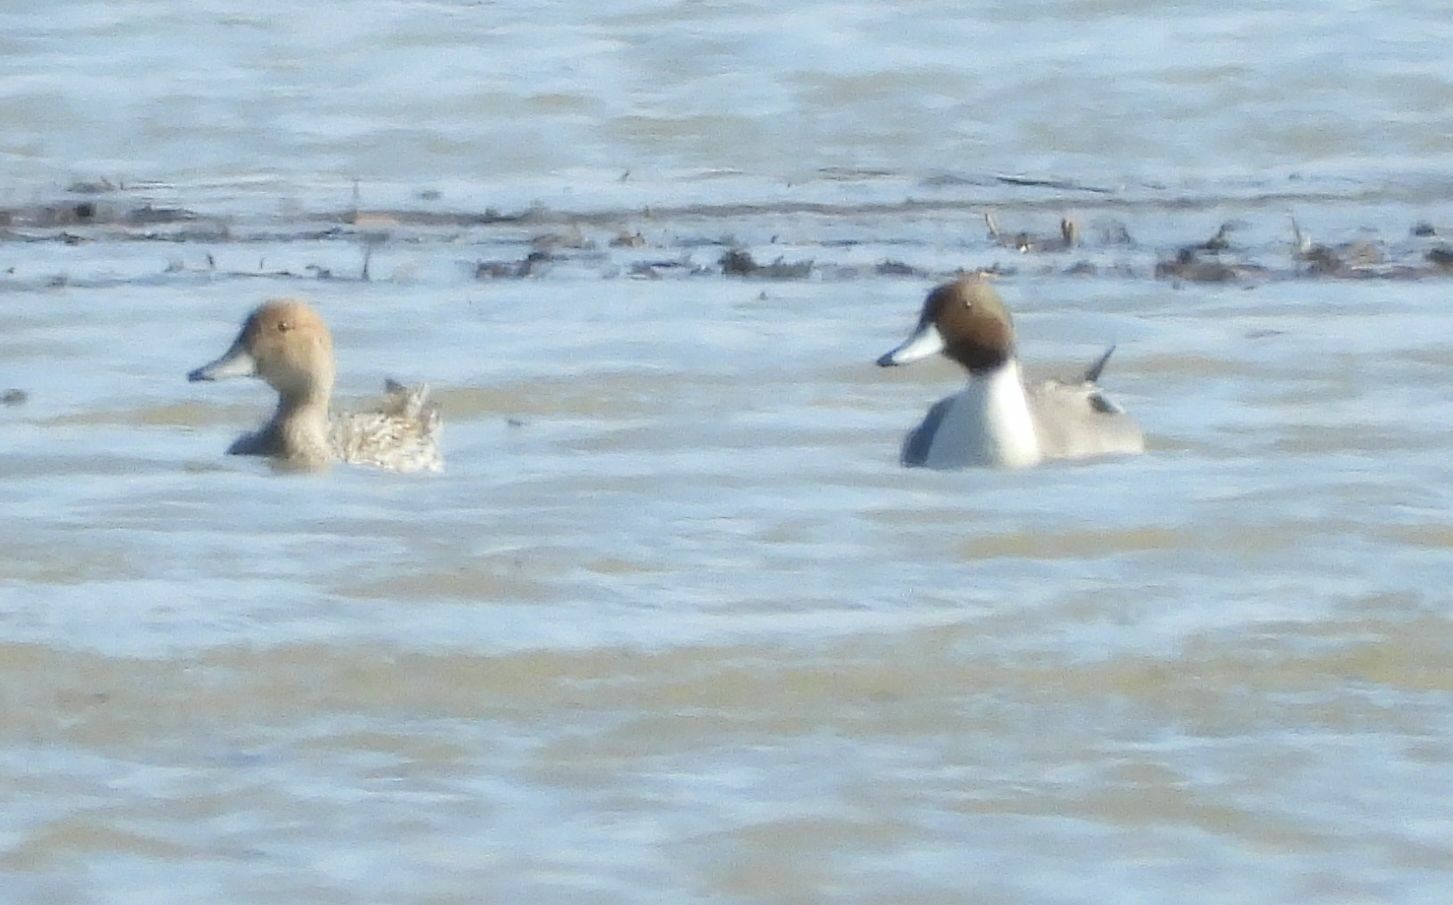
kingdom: Animalia
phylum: Chordata
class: Aves
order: Anseriformes
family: Anatidae
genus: Anas
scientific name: Anas acuta
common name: Northern pintail
